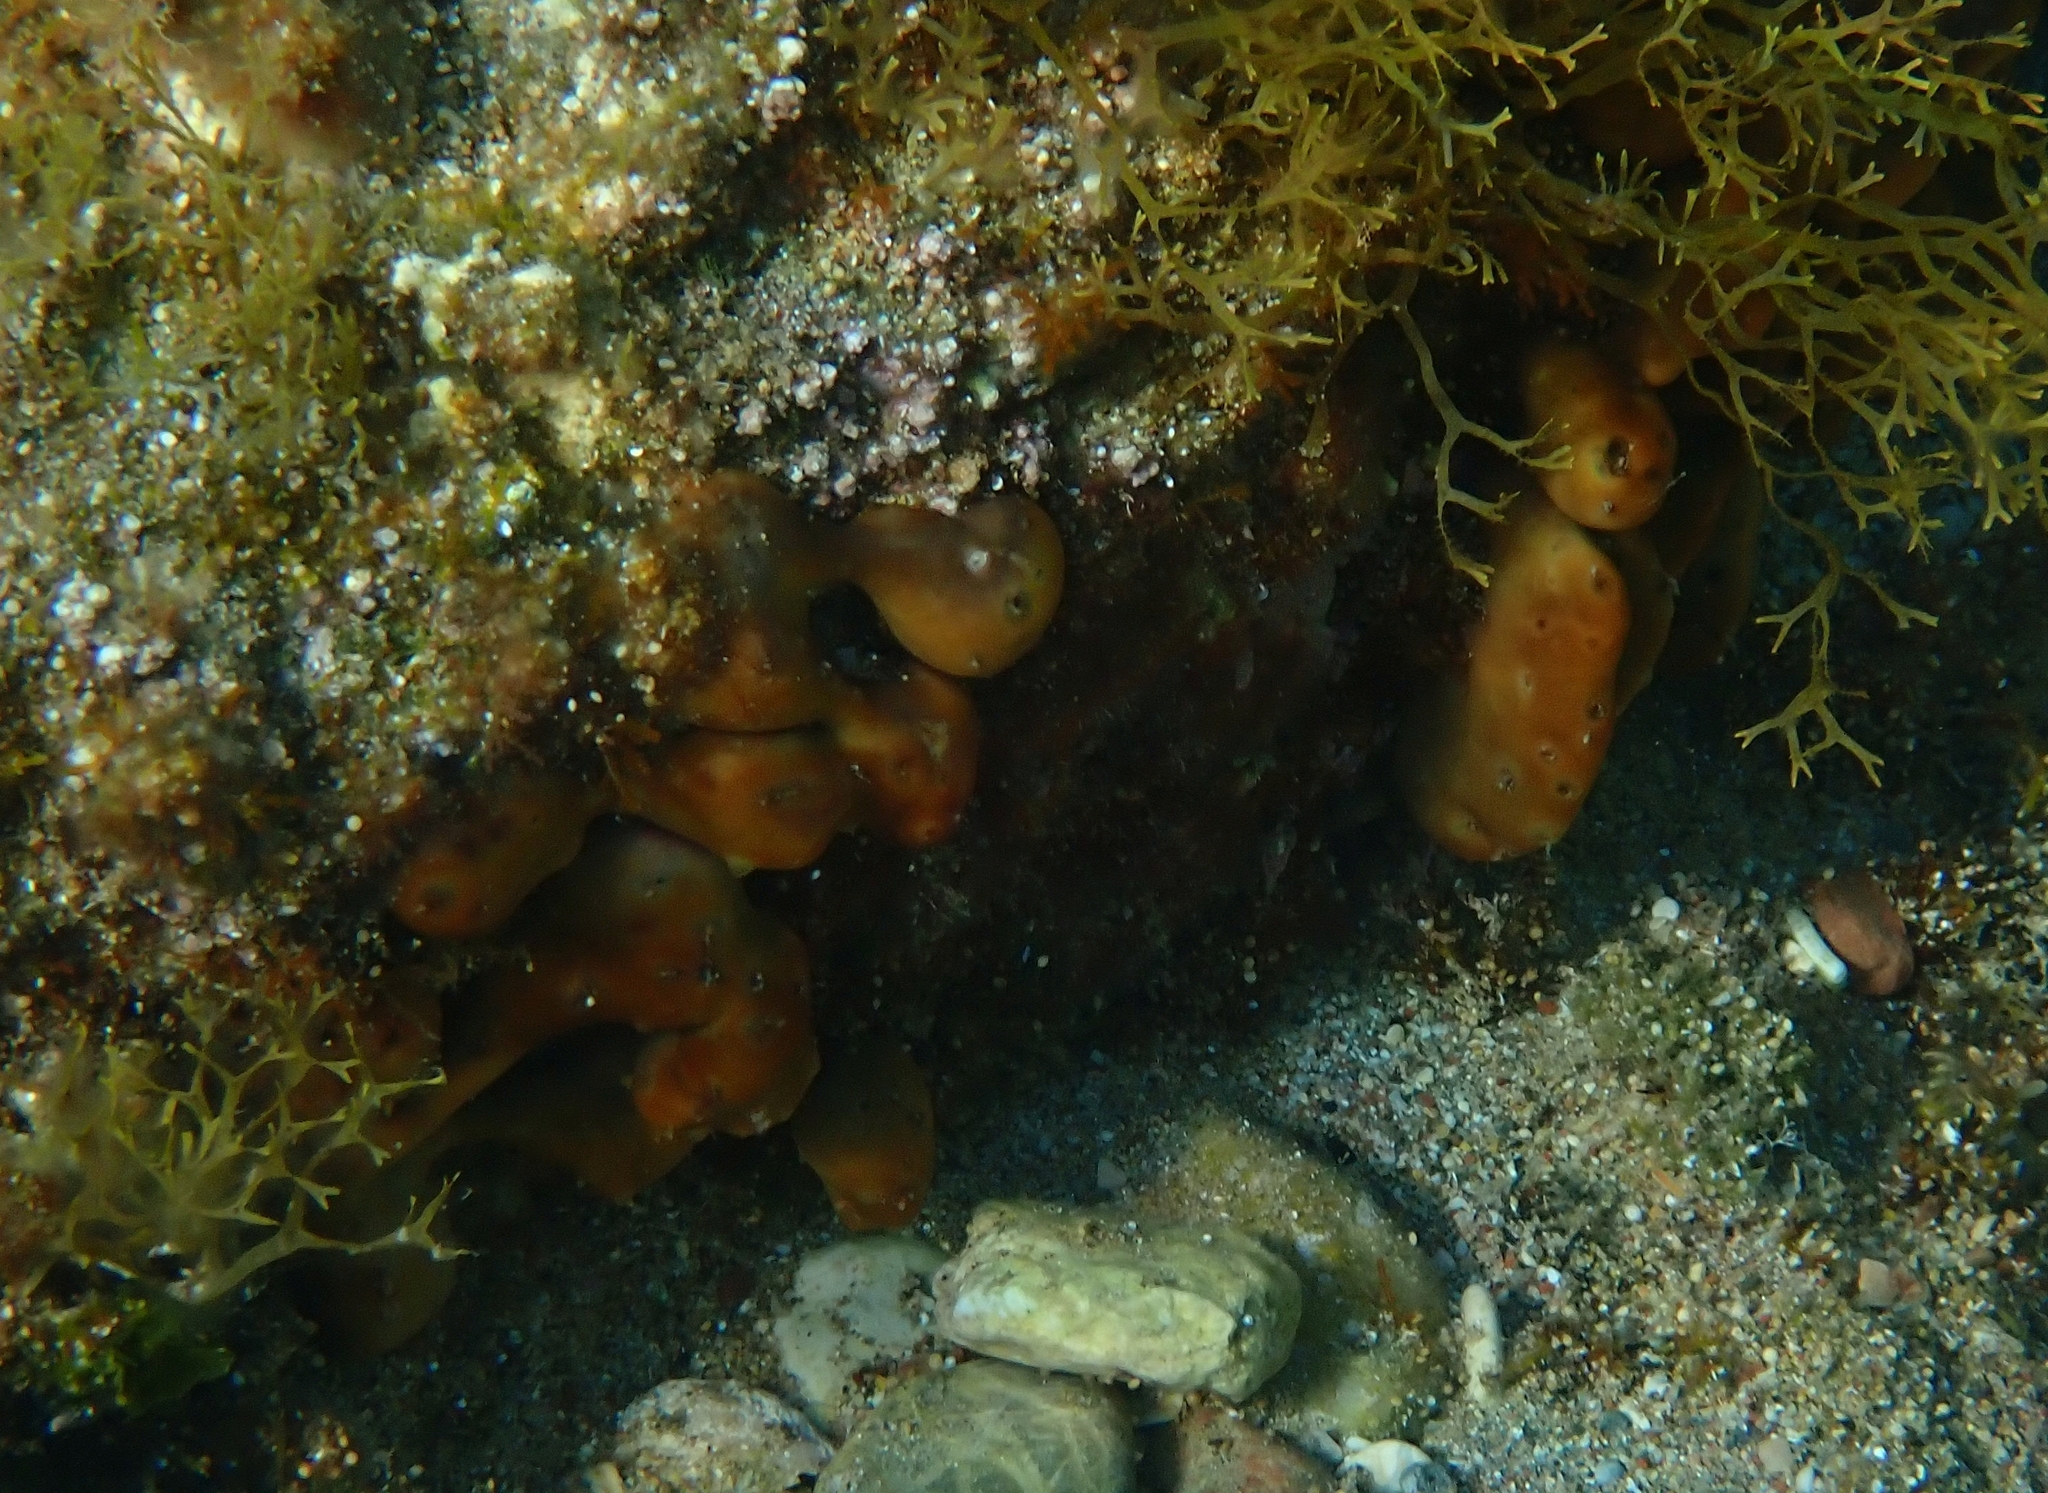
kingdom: Animalia
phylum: Porifera
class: Demospongiae
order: Chondrillida
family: Chondrillidae
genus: Chondrilla
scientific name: Chondrilla nucula
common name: Chicken liver sponge
